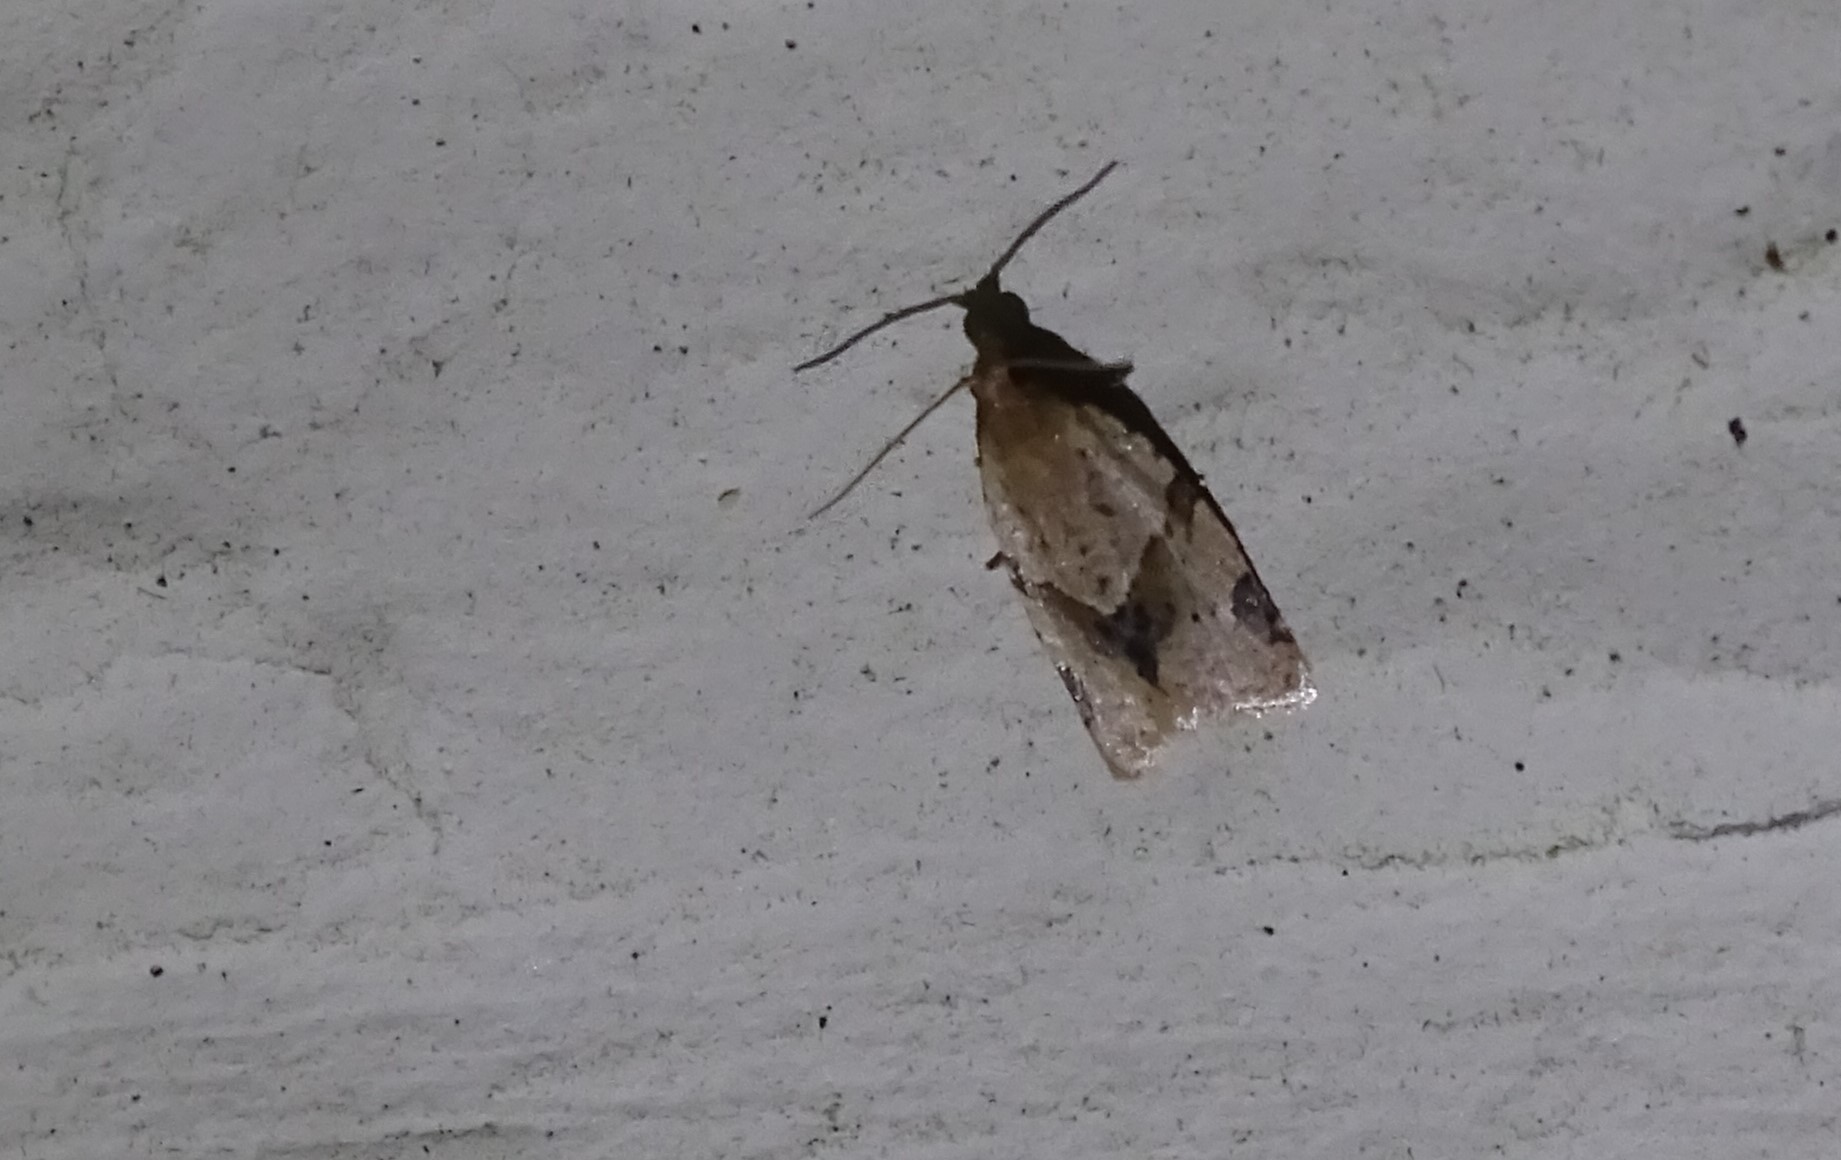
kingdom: Animalia
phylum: Arthropoda
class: Insecta
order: Lepidoptera
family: Tortricidae
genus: Clepsis
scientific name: Clepsis peritana
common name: Garden tortrix
